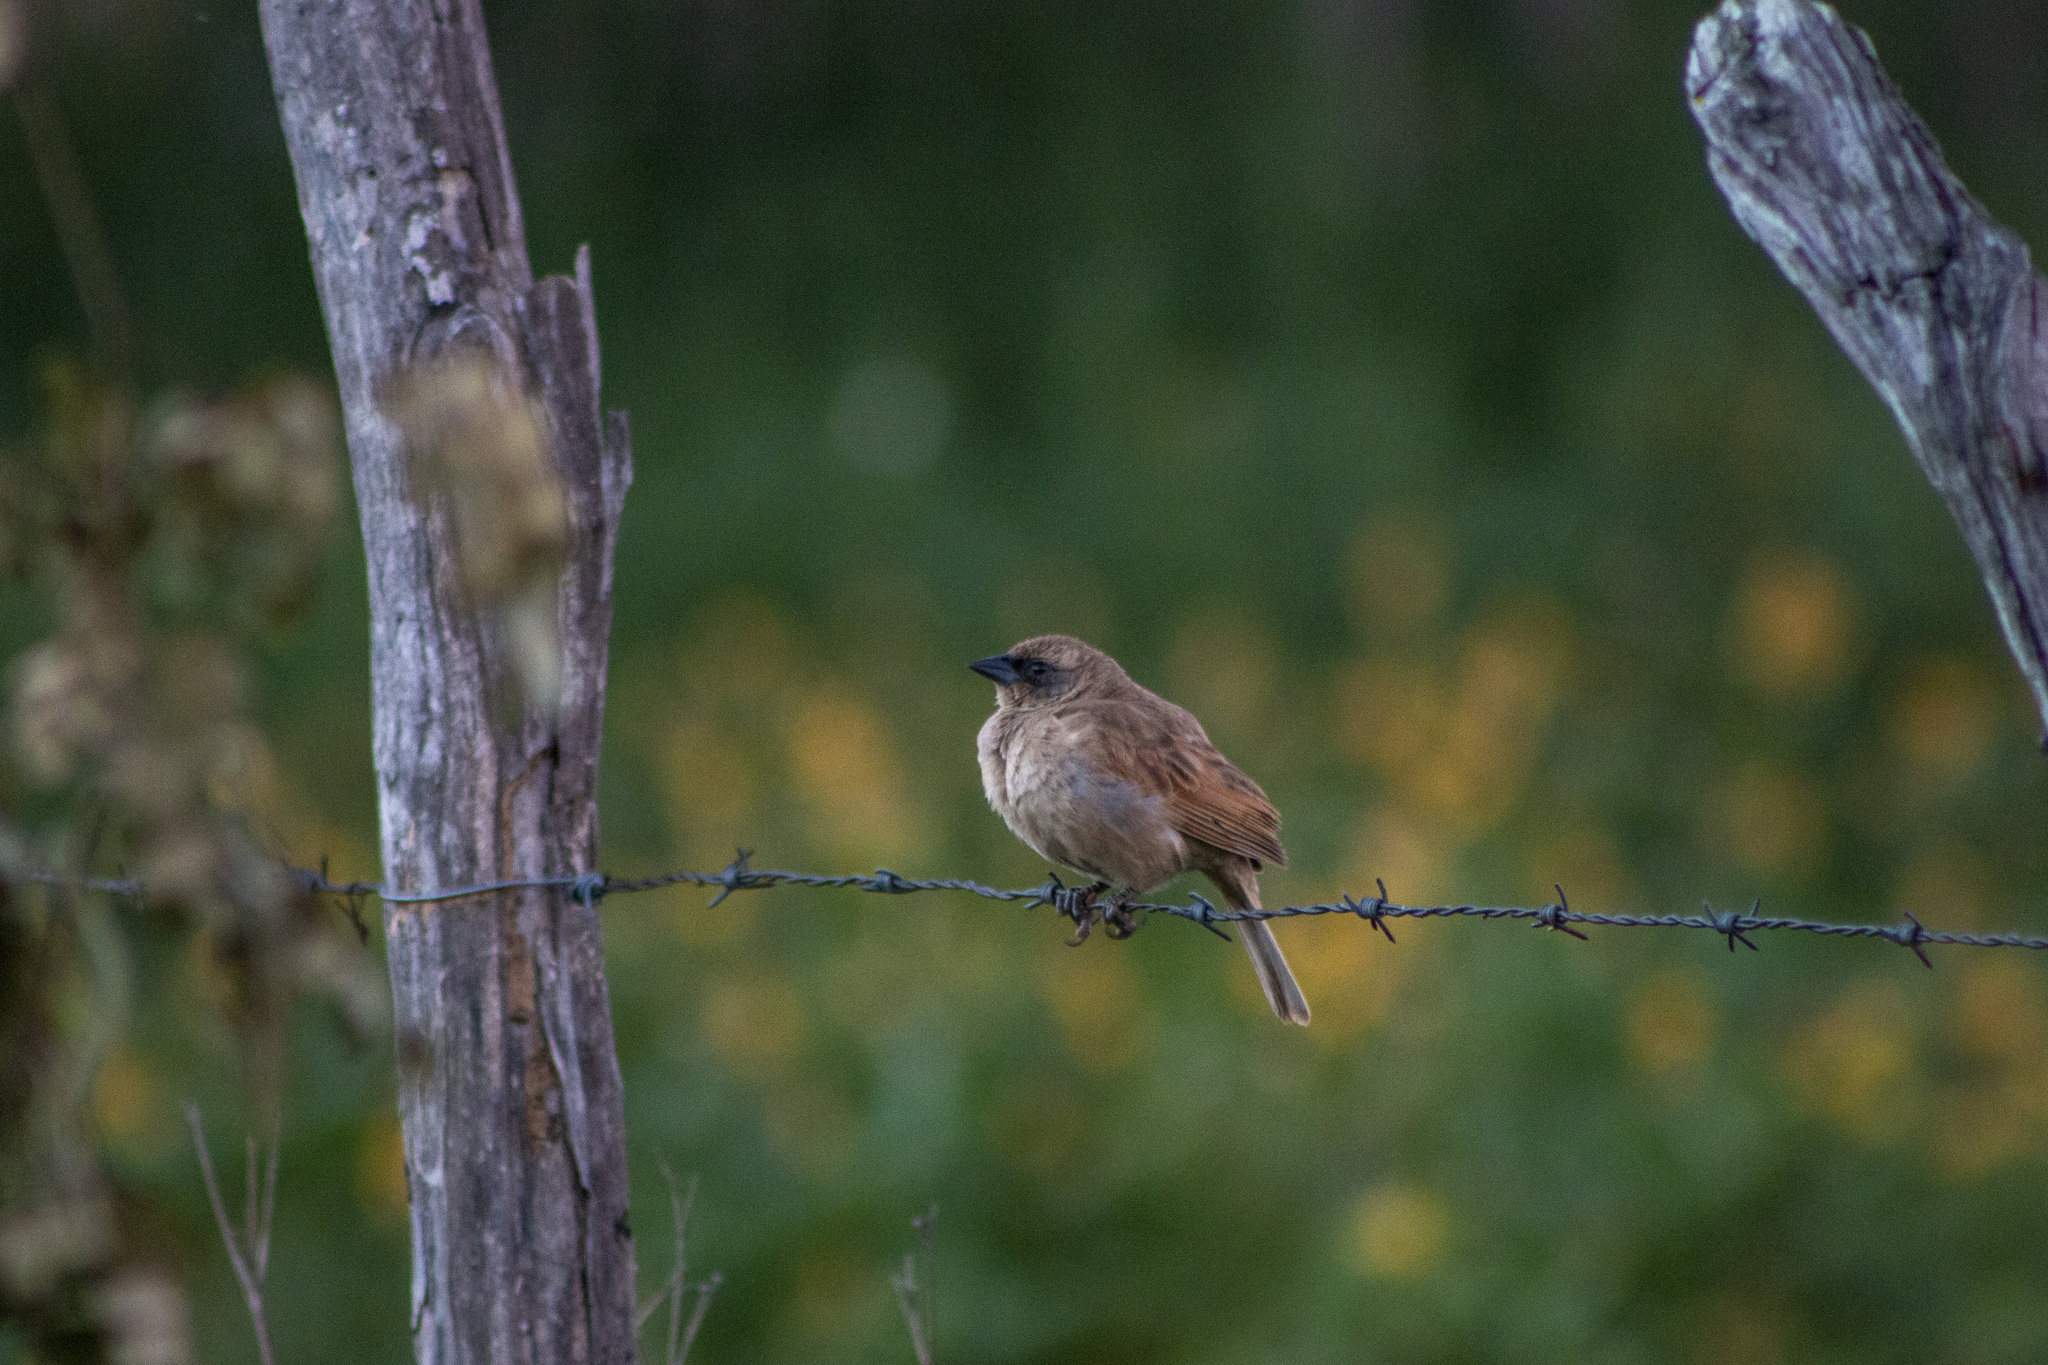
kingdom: Animalia
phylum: Chordata
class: Aves
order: Passeriformes
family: Icteridae
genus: Agelaioides
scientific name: Agelaioides badius
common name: Baywing
